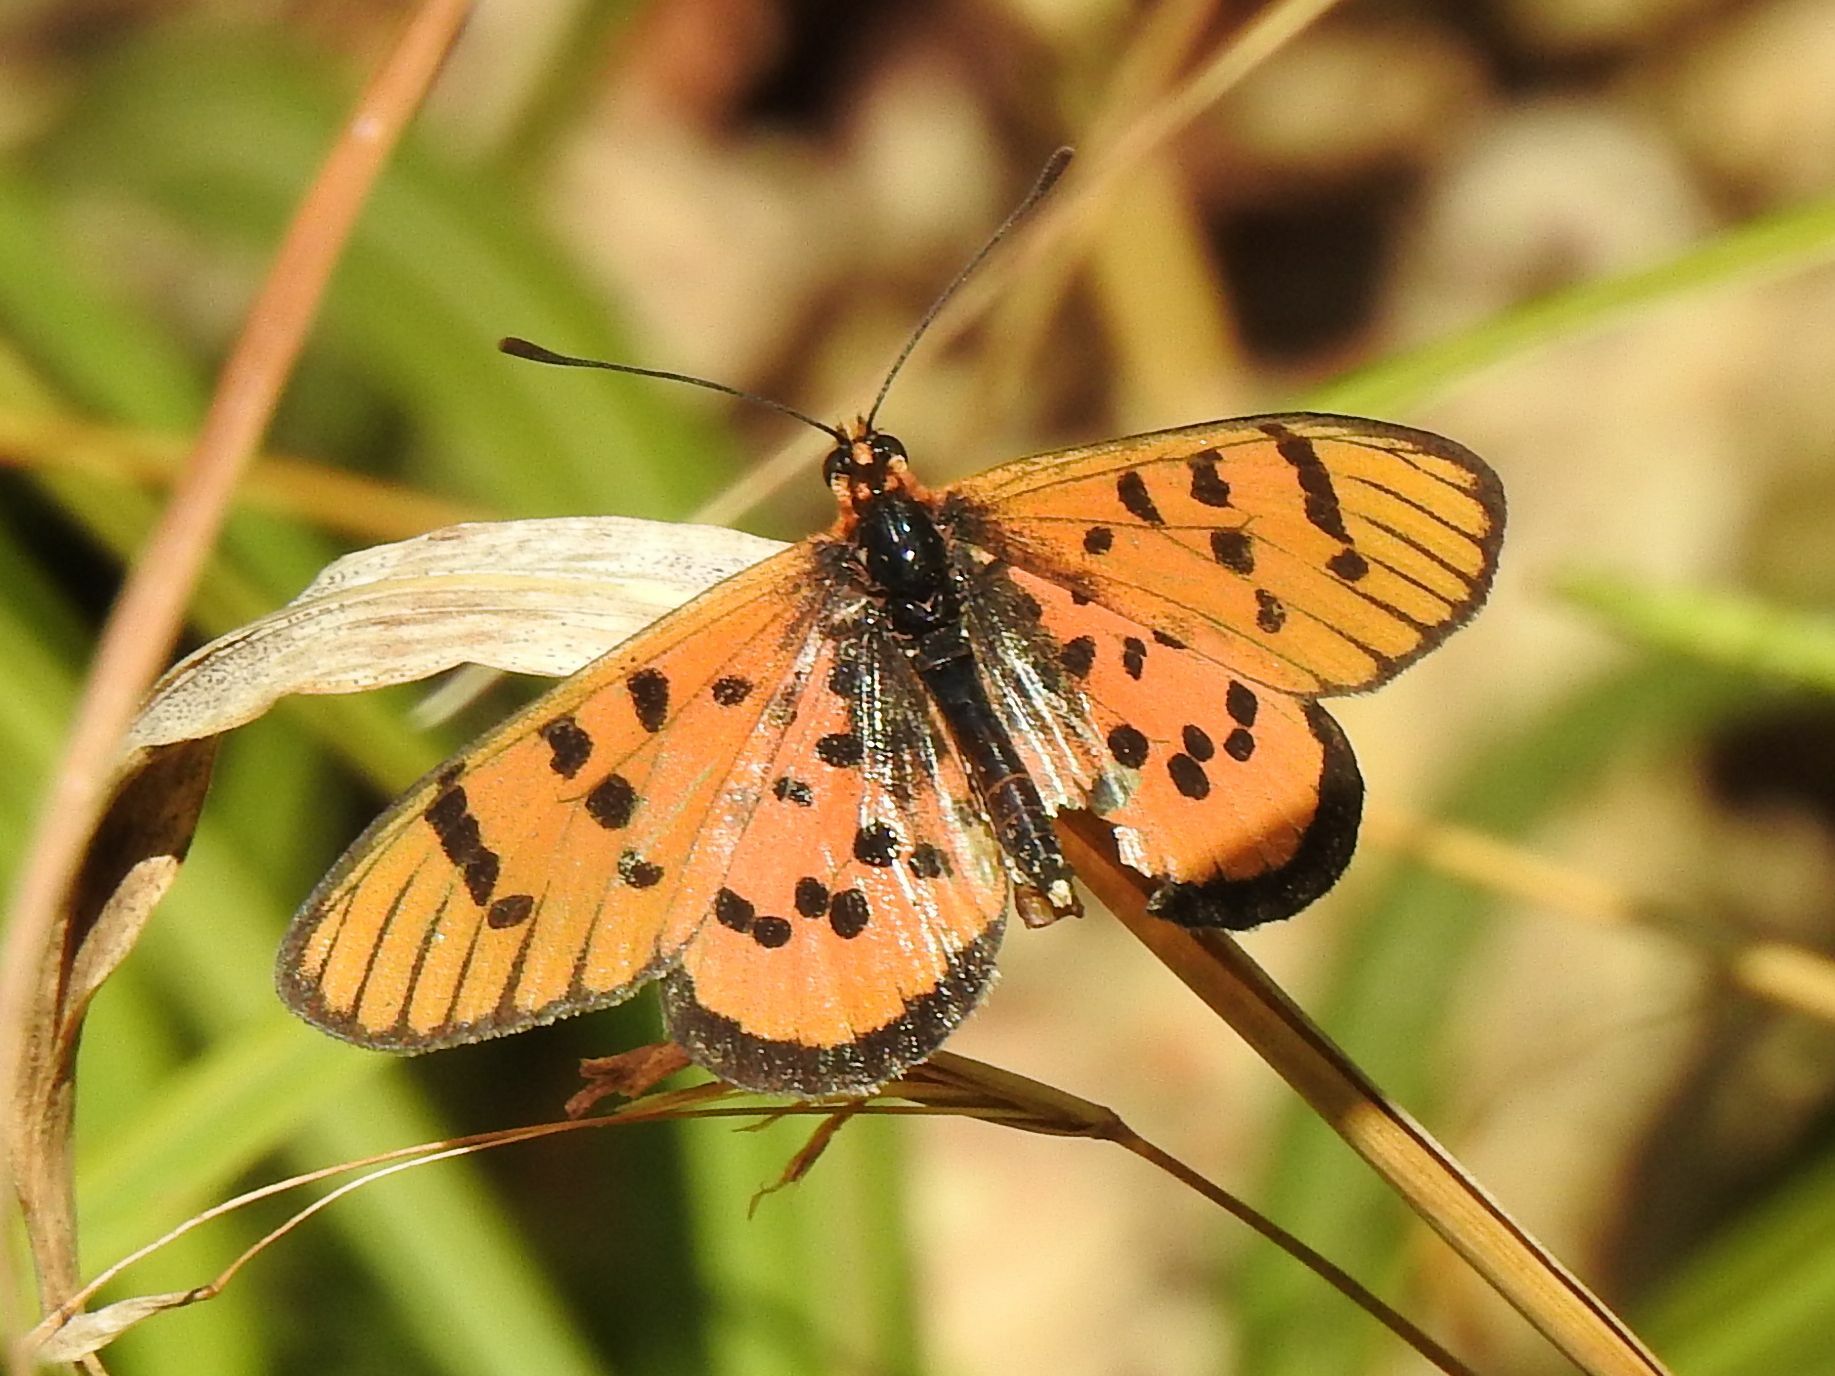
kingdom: Animalia
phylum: Arthropoda
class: Insecta
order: Lepidoptera
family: Nymphalidae
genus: Rubraea
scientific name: Rubraea
